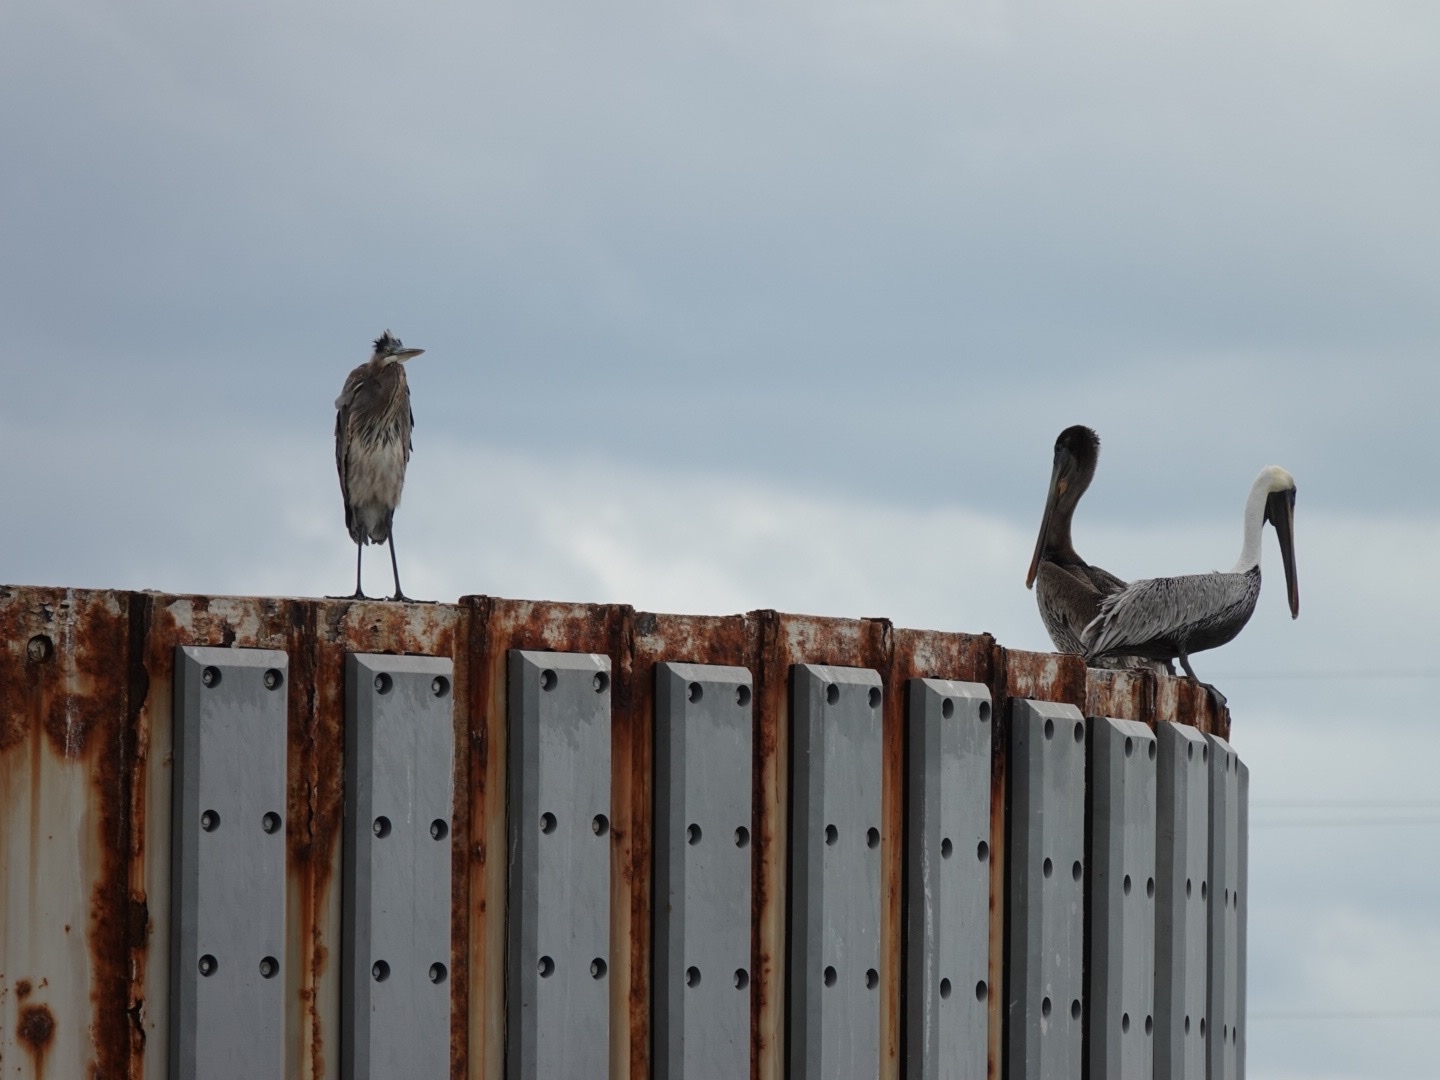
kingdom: Animalia
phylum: Chordata
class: Aves
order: Pelecaniformes
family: Pelecanidae
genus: Pelecanus
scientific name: Pelecanus occidentalis
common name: Brown pelican
